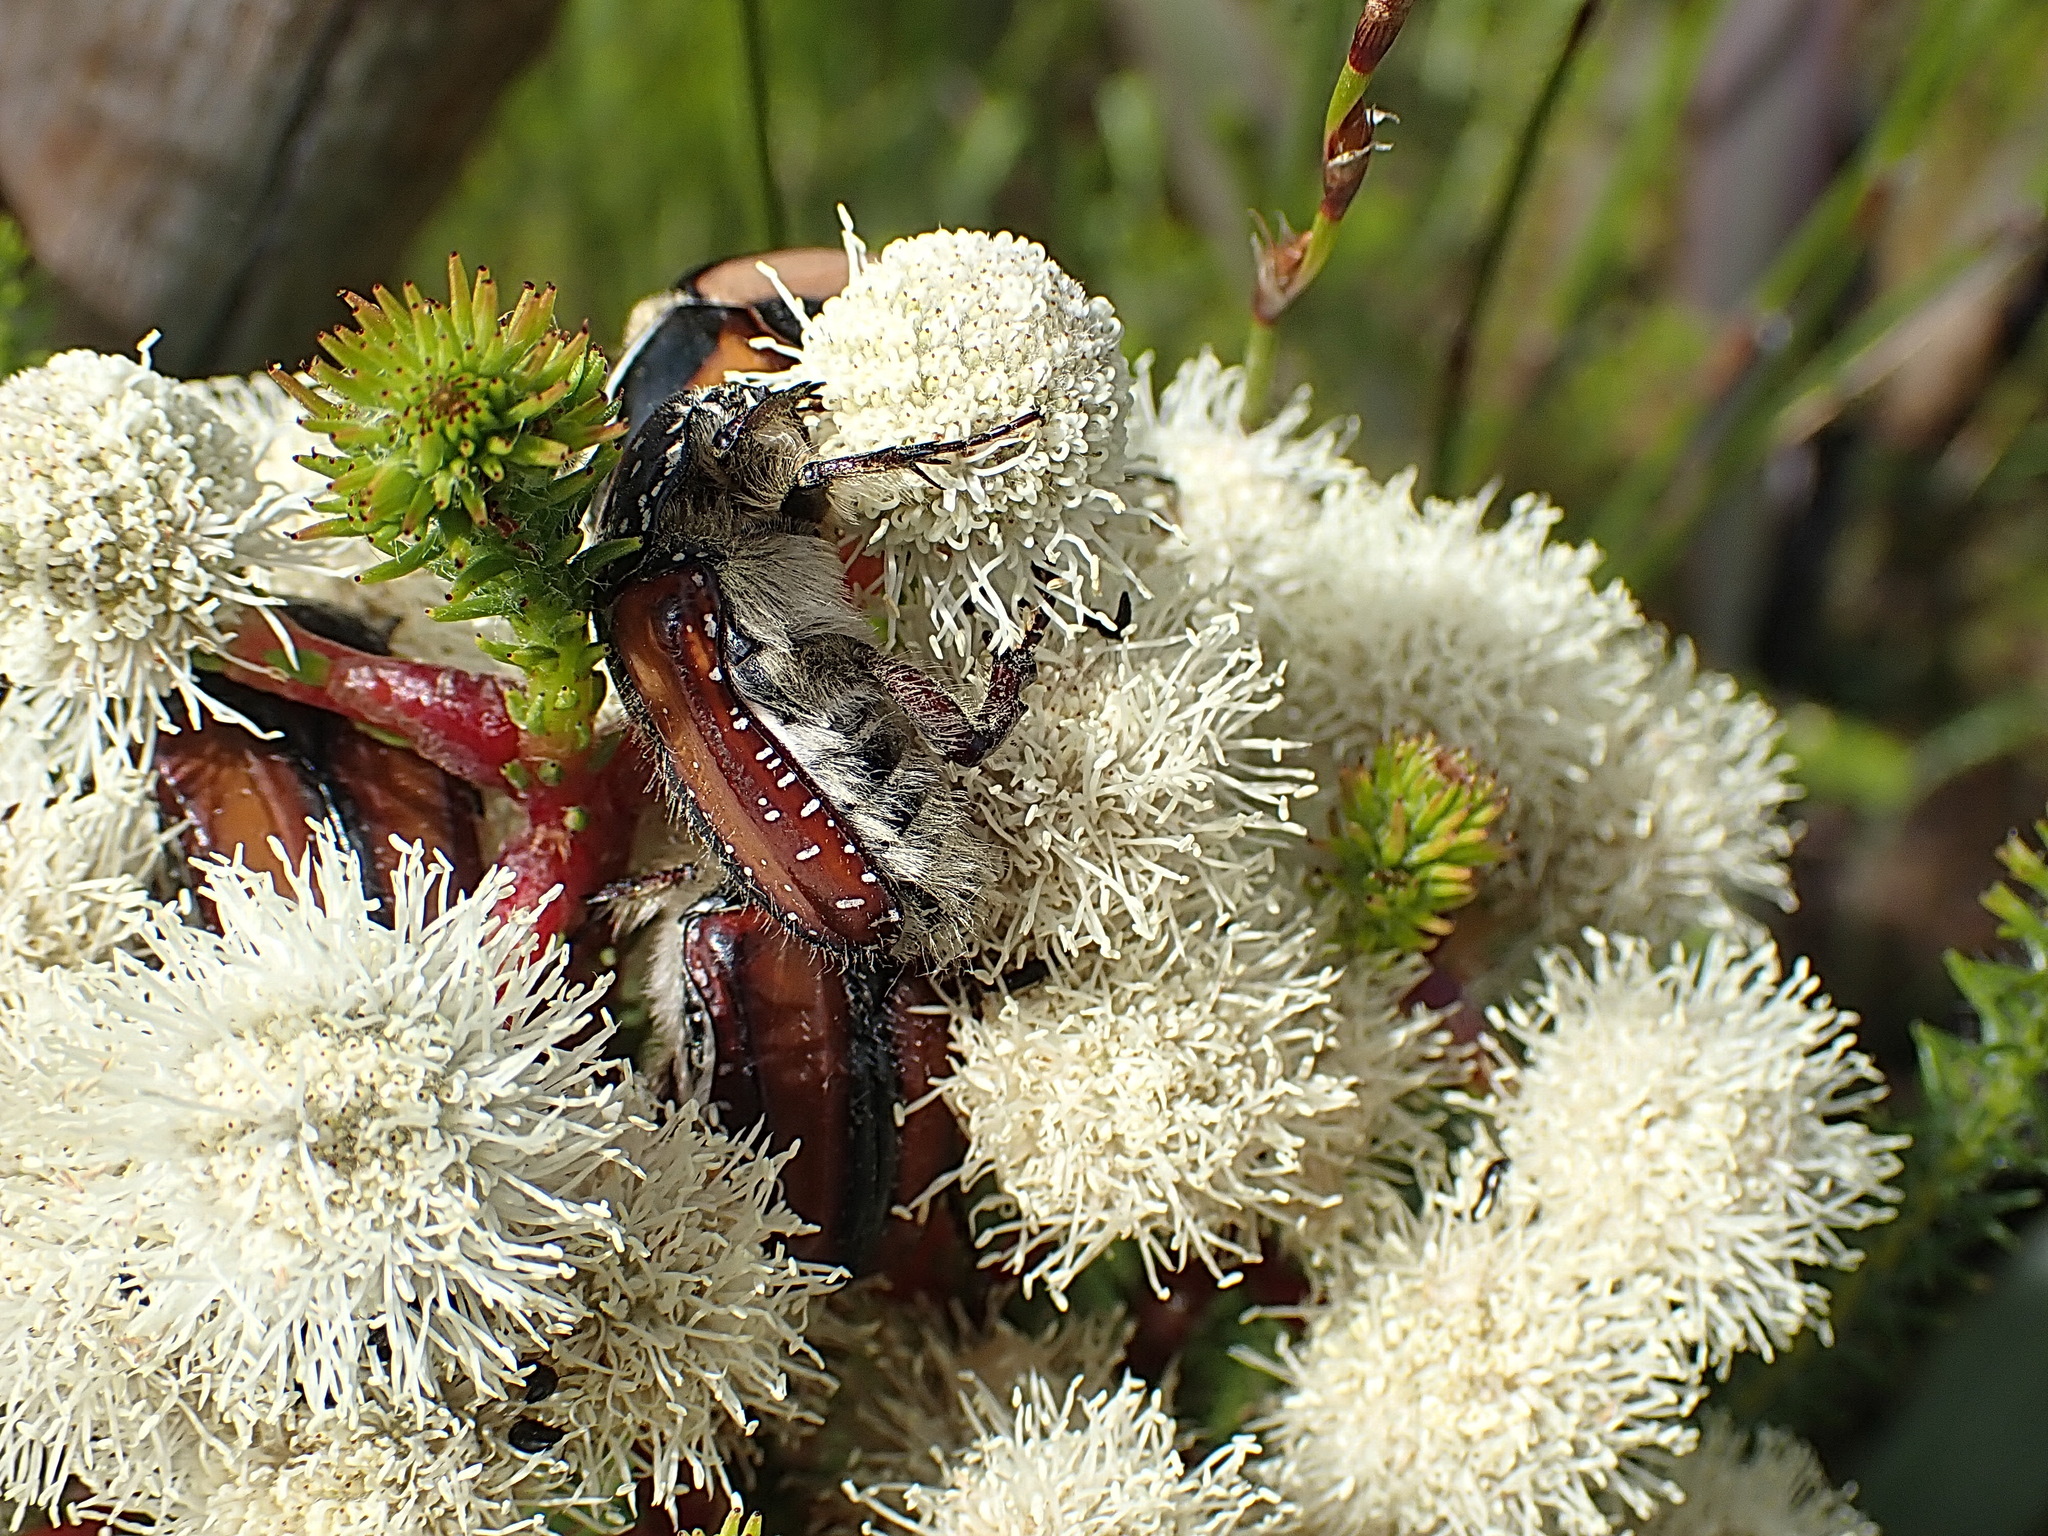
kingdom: Animalia
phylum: Arthropoda
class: Insecta
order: Coleoptera
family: Scarabaeidae
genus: Trichostetha
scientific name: Trichostetha capensis
